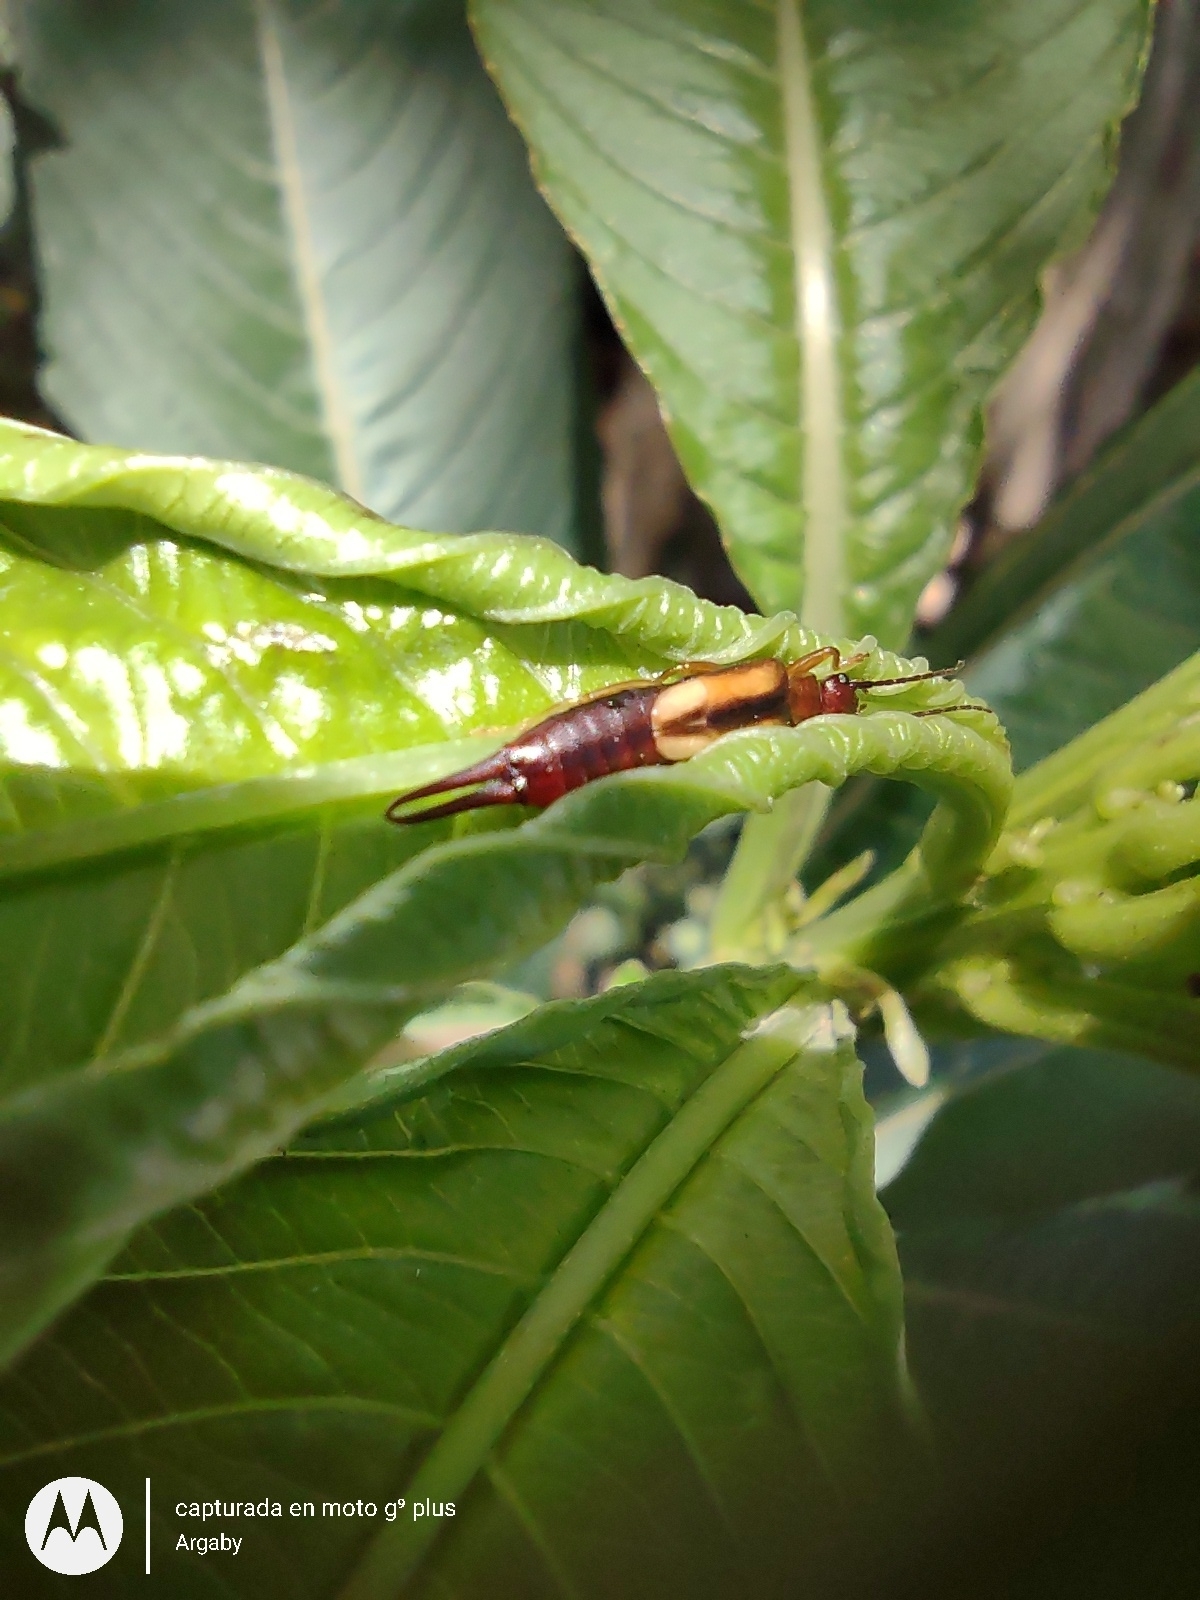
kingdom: Animalia
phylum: Arthropoda
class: Insecta
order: Dermaptera
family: Forficulidae
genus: Doru
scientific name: Doru
